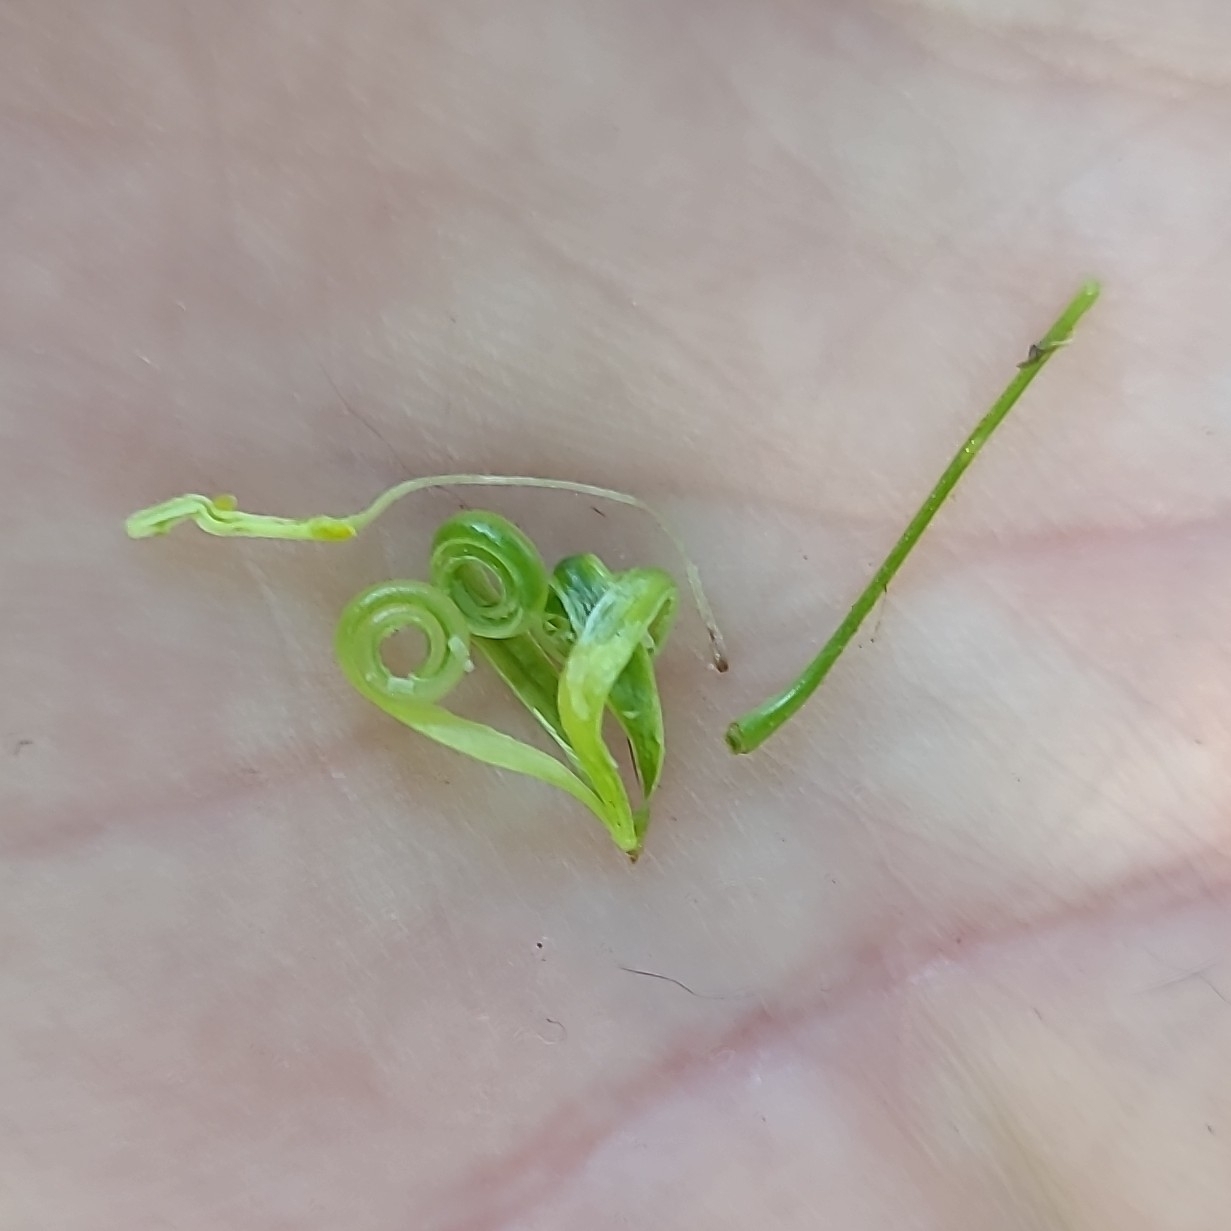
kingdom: Plantae
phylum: Tracheophyta
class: Magnoliopsida
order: Ericales
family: Balsaminaceae
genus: Impatiens
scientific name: Impatiens parviflora
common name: Small balsam
